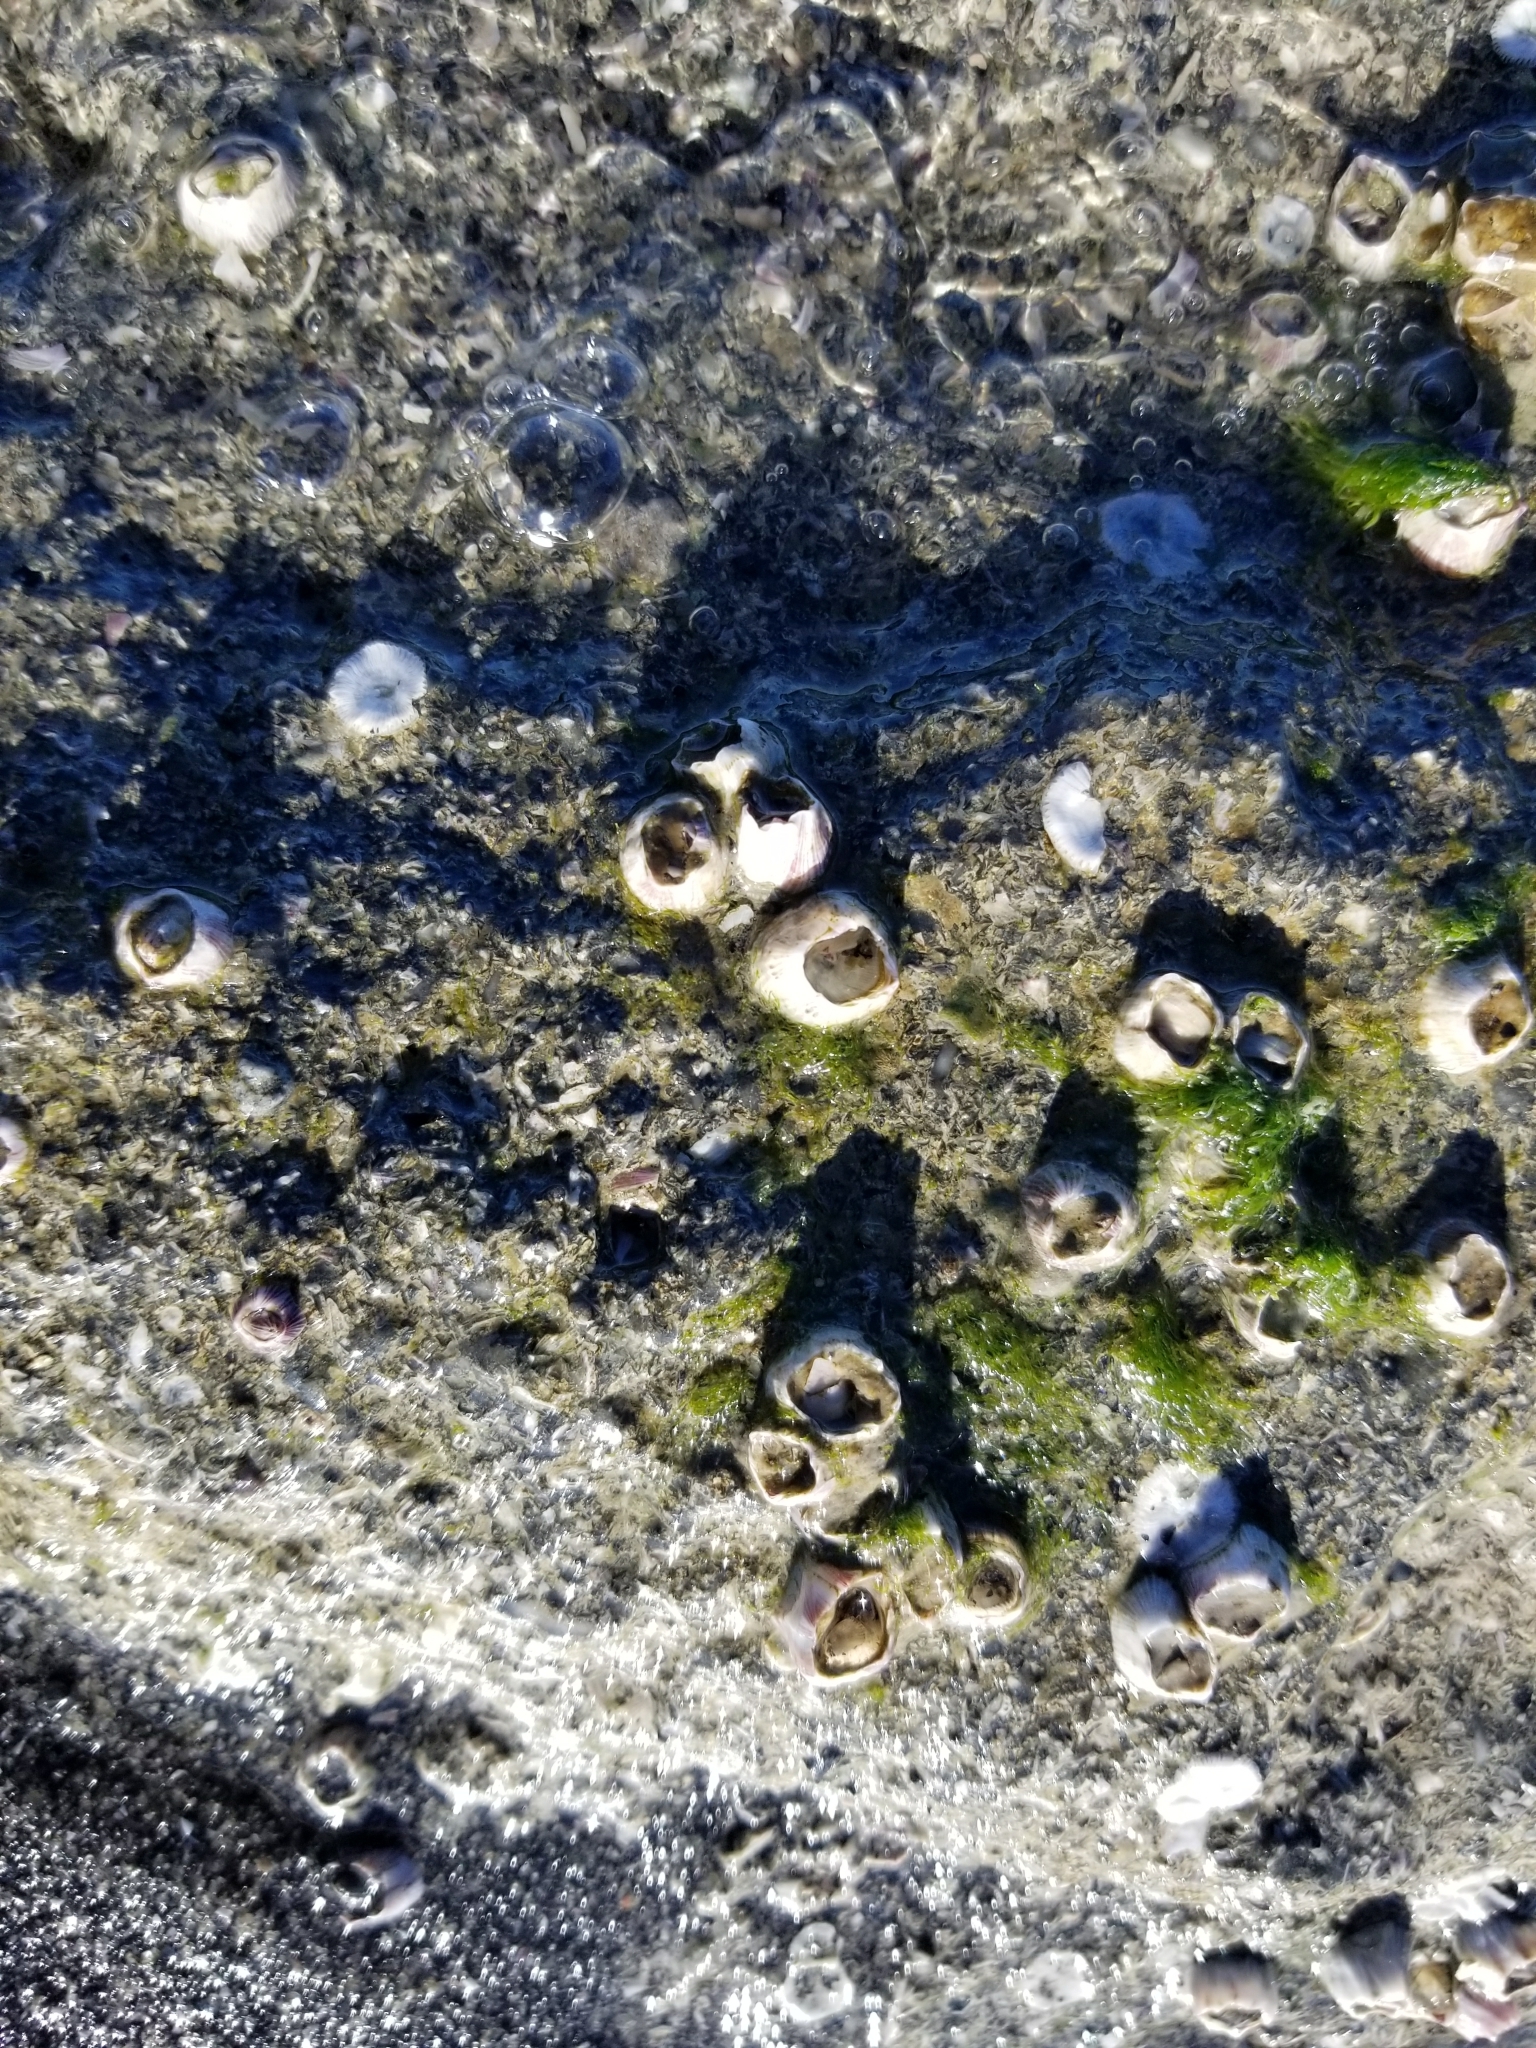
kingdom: Animalia
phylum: Arthropoda
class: Maxillopoda
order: Sessilia
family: Balanidae
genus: Amphibalanus
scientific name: Amphibalanus amphitrite
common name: Striped acorn barnacle
